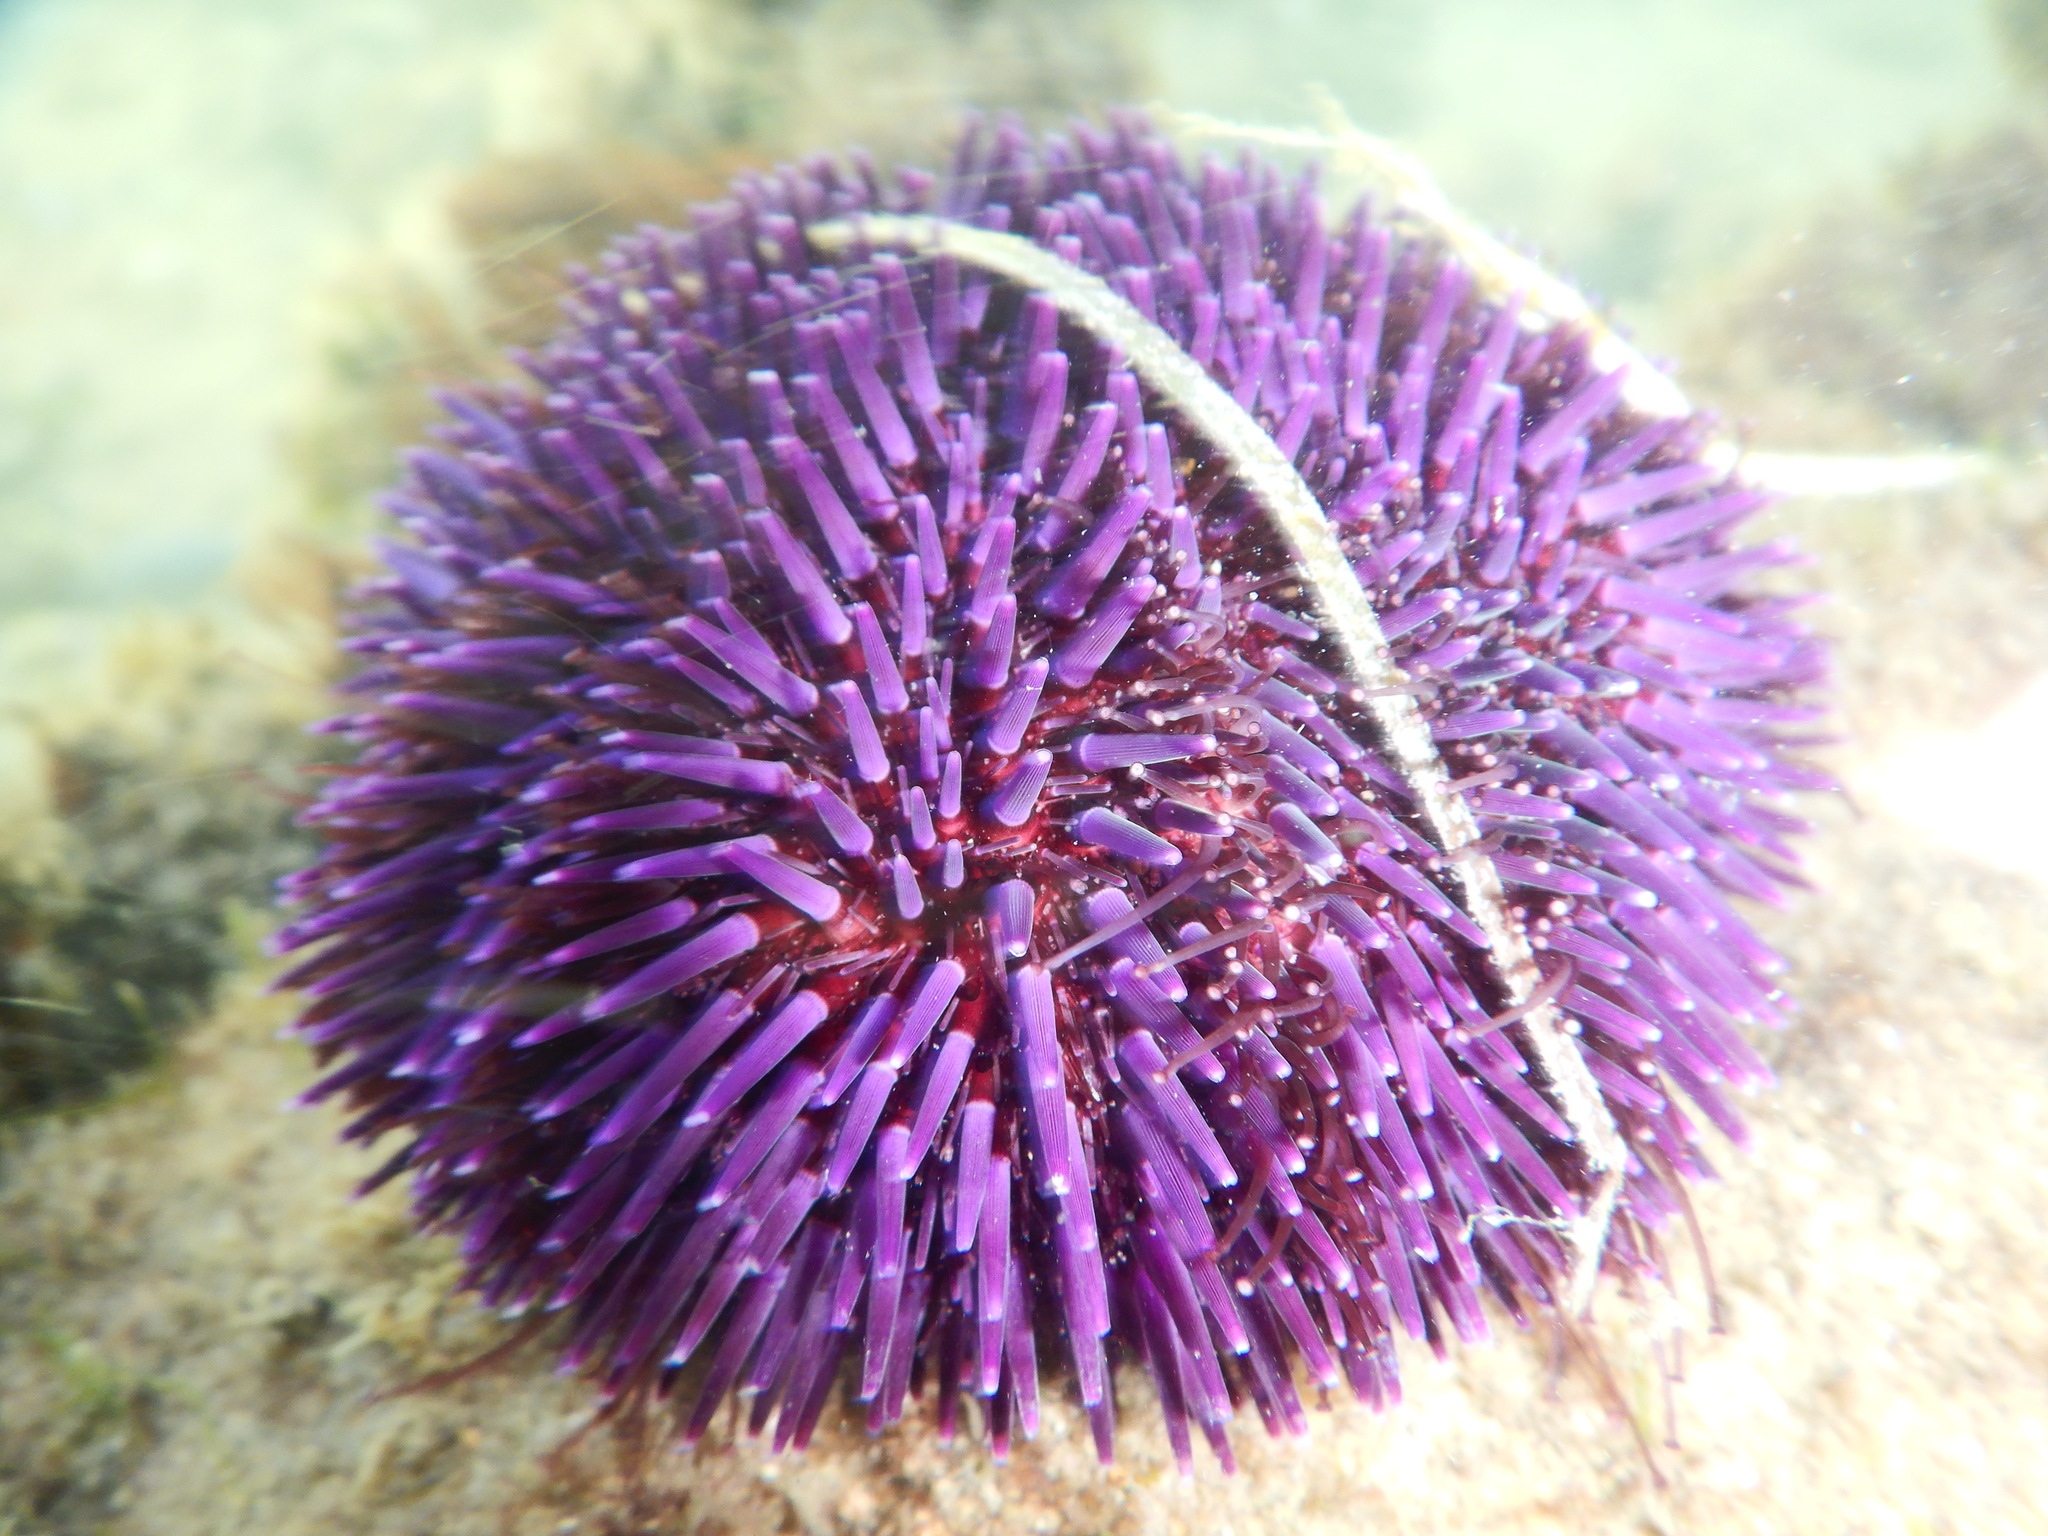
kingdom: Animalia
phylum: Echinodermata
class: Echinoidea
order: Camarodonta
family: Toxopneustidae
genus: Sphaerechinus
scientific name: Sphaerechinus granularis
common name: Violet sea urchin
